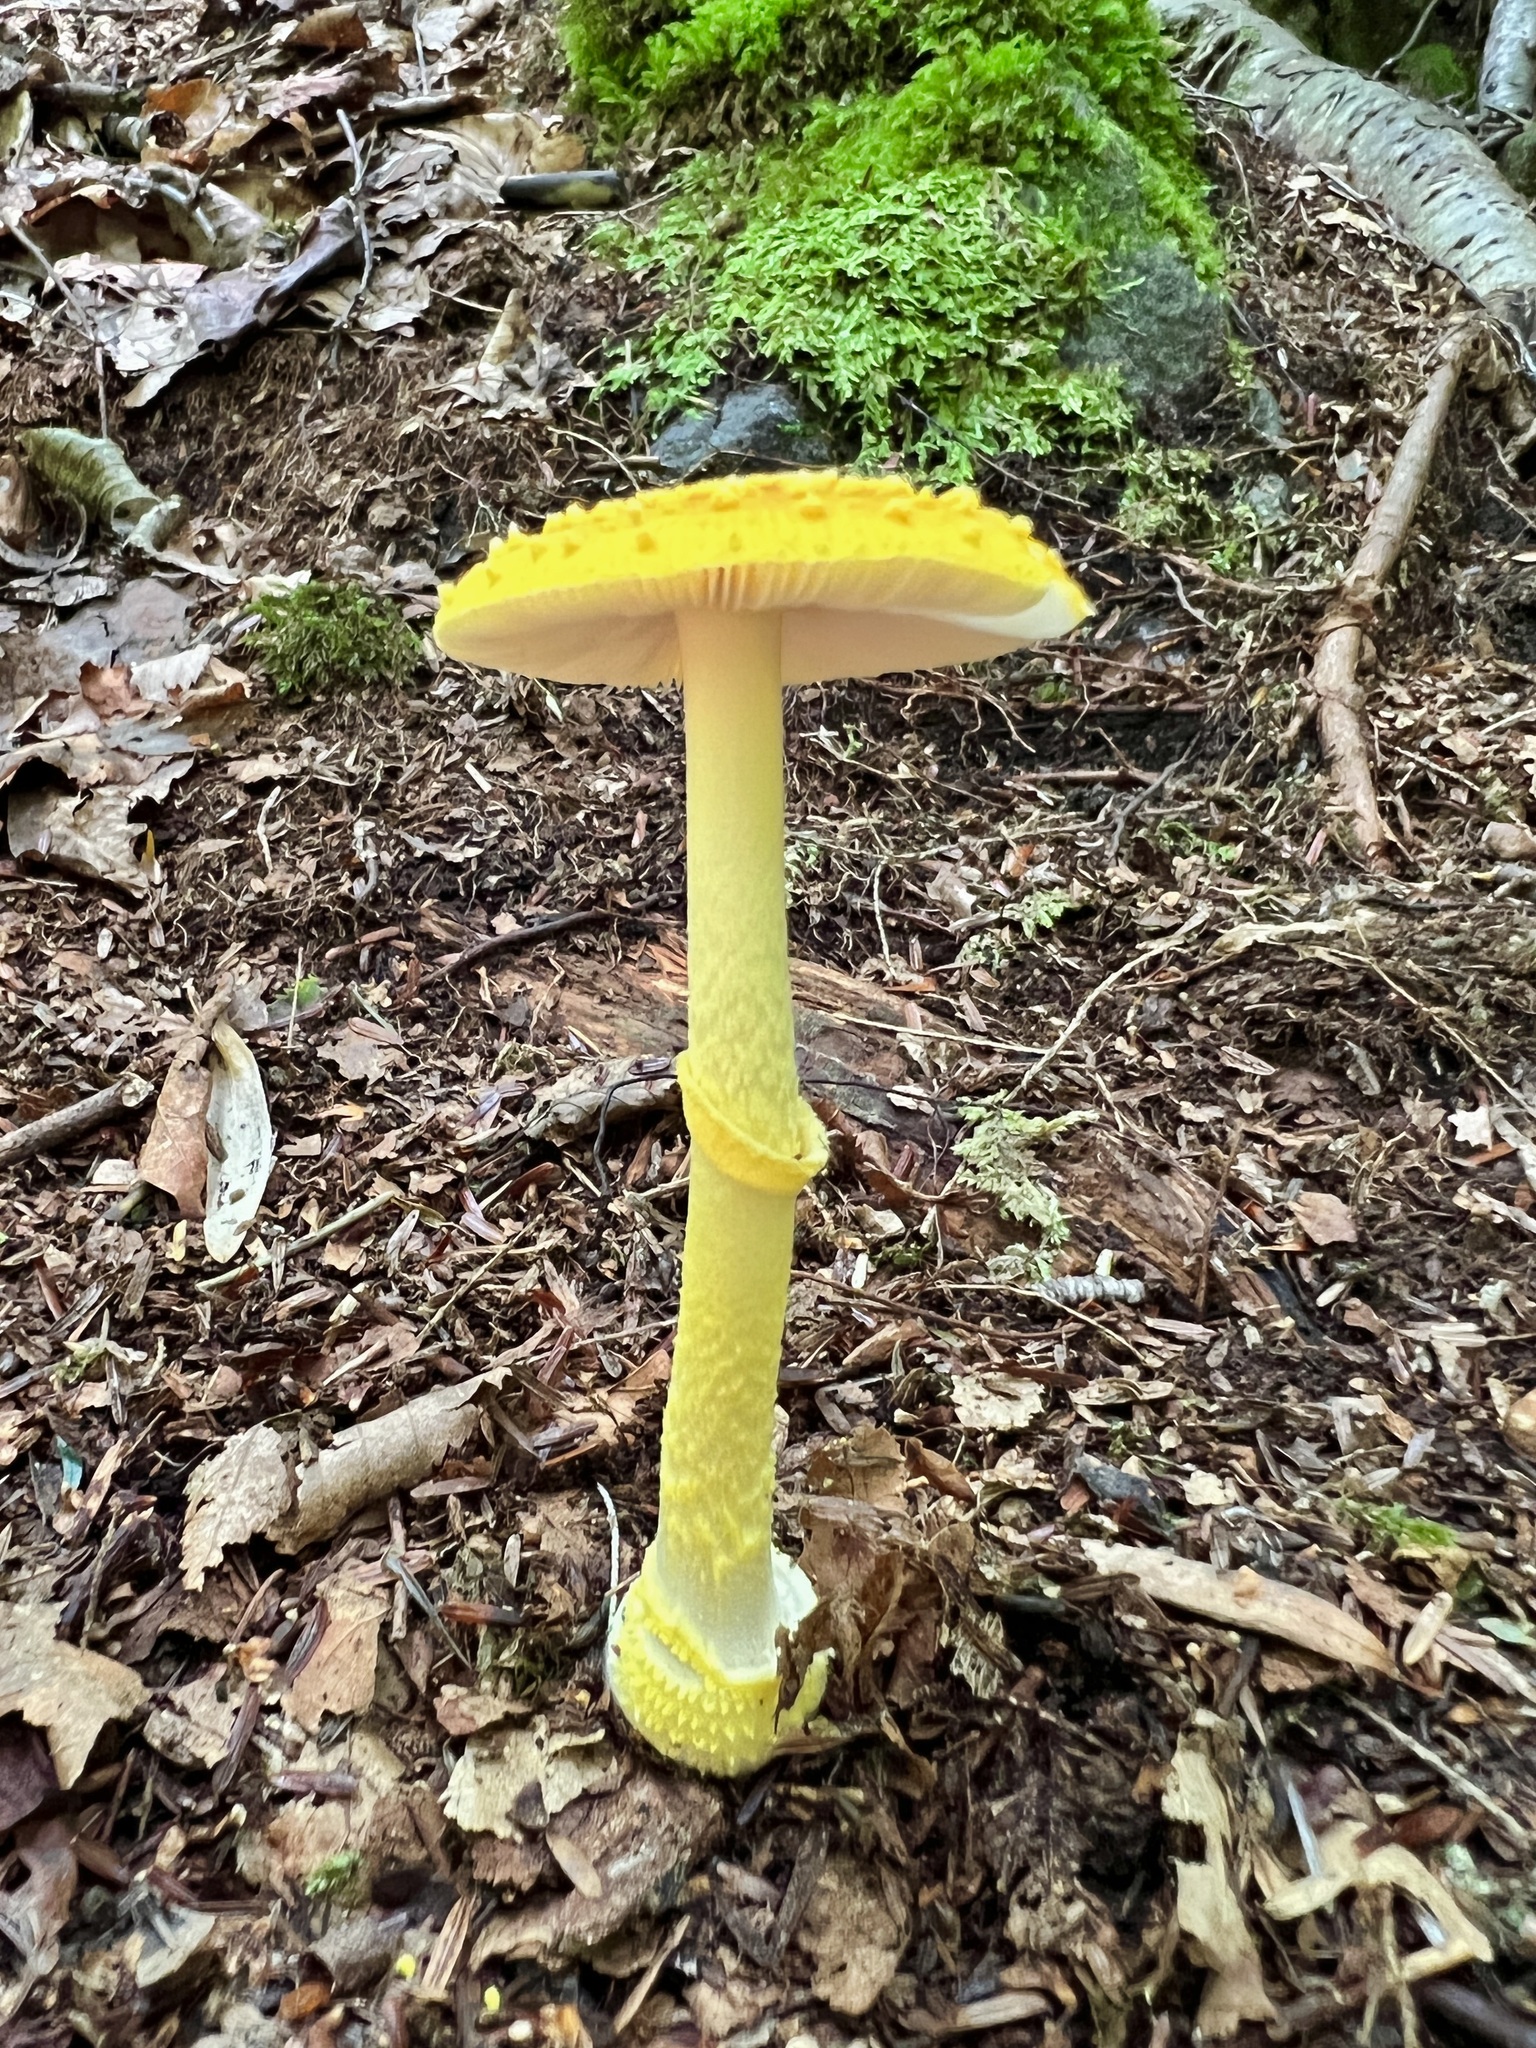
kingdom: Fungi
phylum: Basidiomycota
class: Agaricomycetes
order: Agaricales
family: Amanitaceae
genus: Amanita
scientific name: Amanita flavoconia
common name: Yellow patches
